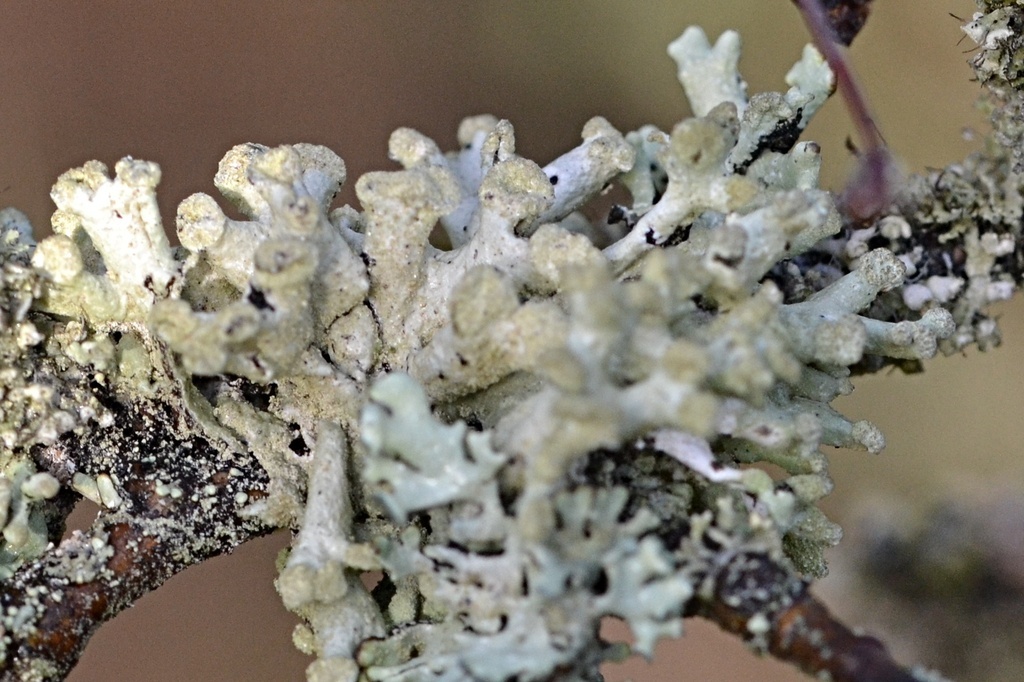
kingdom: Fungi
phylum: Ascomycota
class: Lecanoromycetes
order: Lecanorales
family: Parmeliaceae
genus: Hypogymnia
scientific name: Hypogymnia tubulosa
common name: Powder-headed tube lichen
